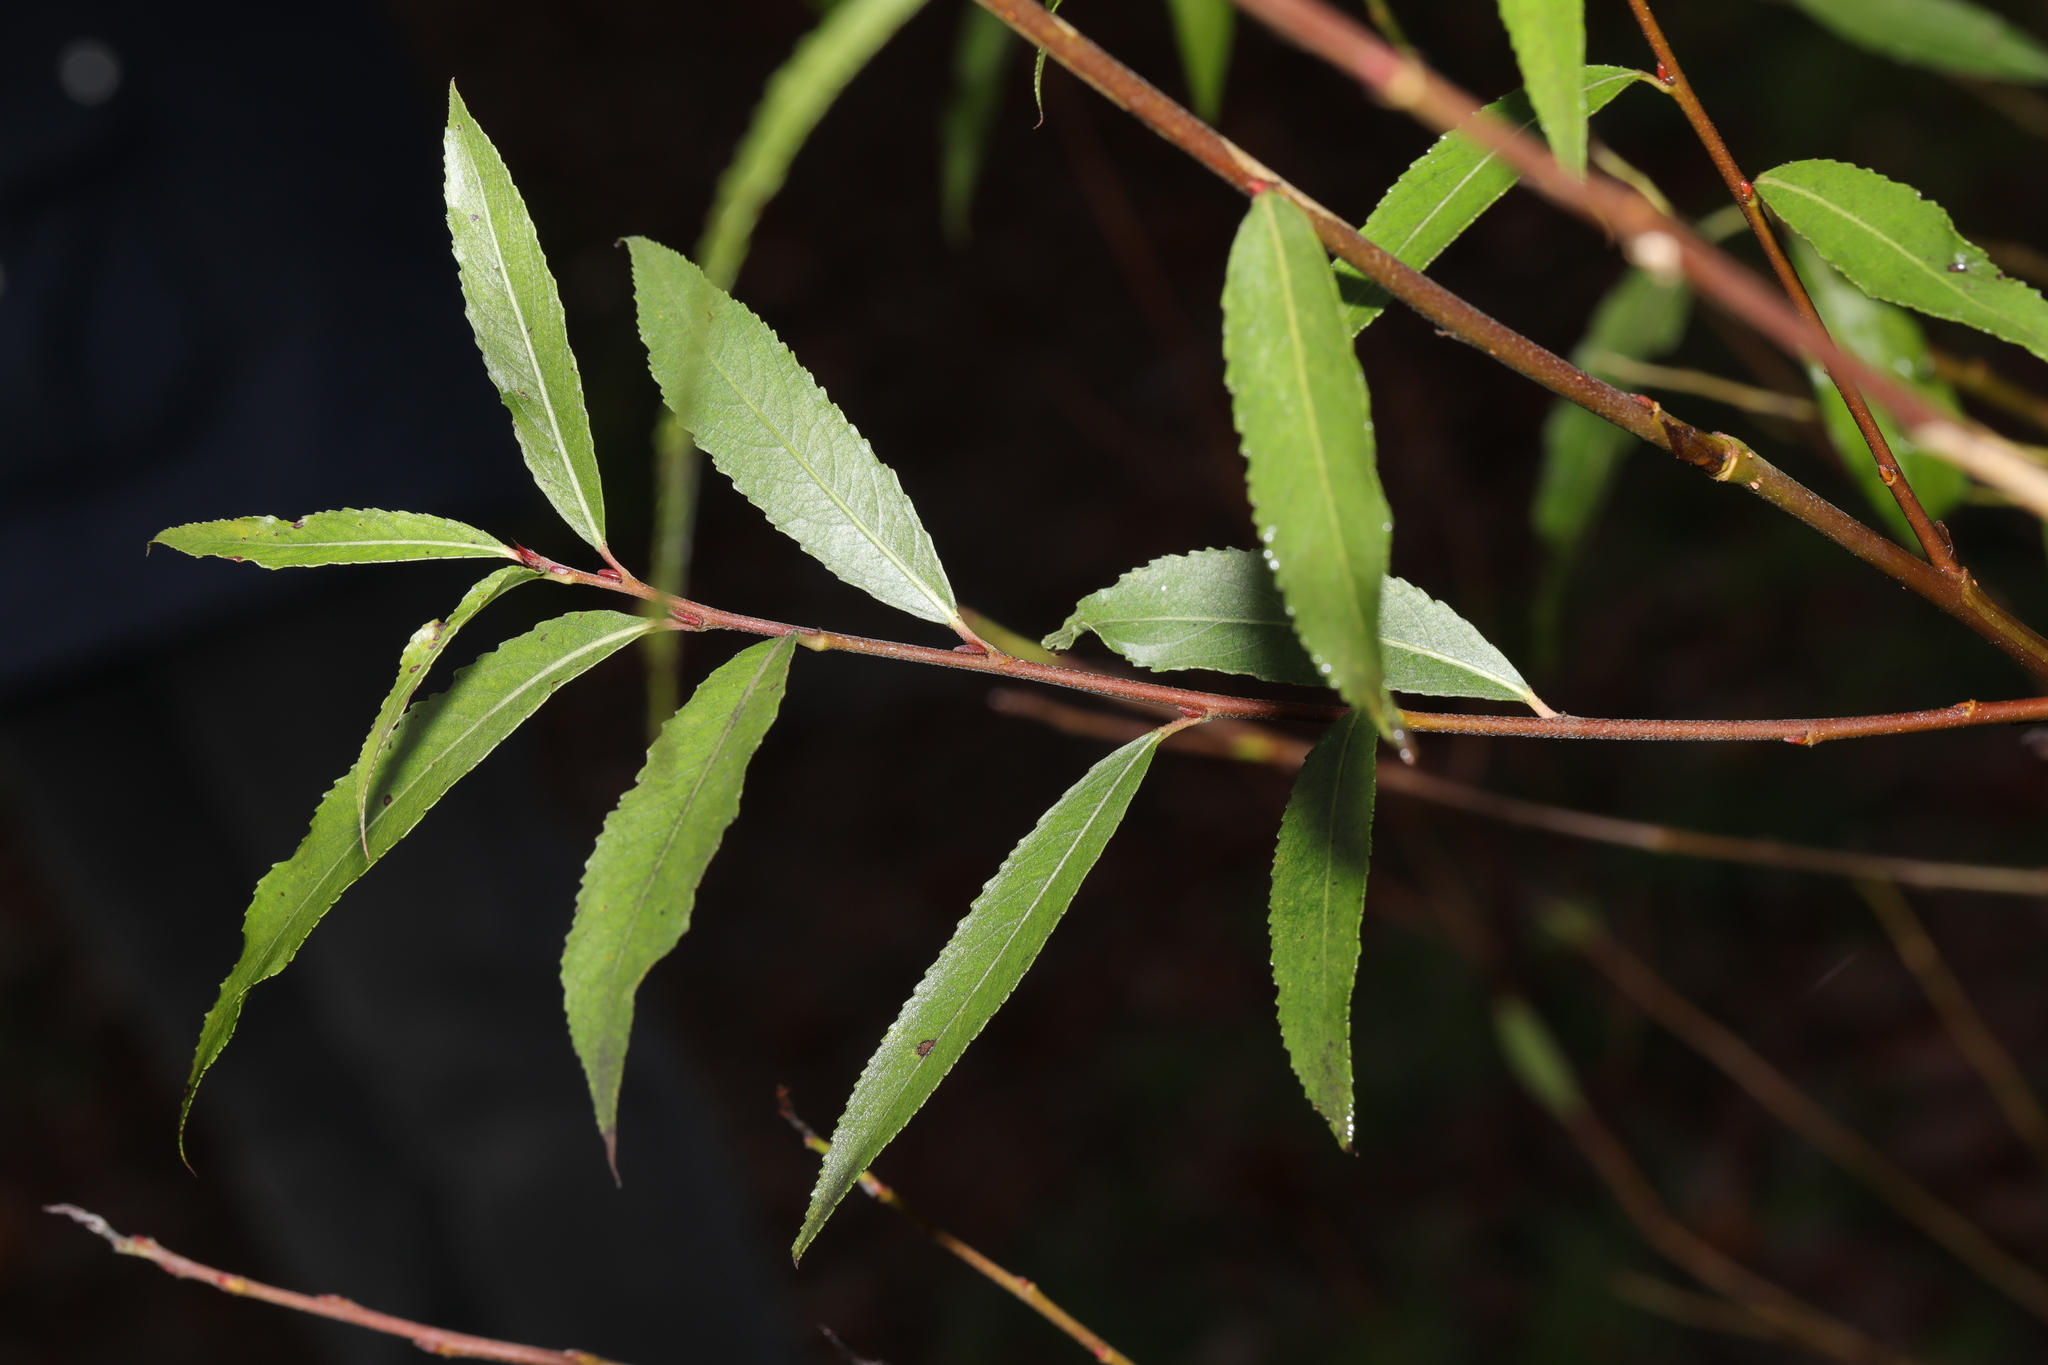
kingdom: Plantae
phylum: Tracheophyta
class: Magnoliopsida
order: Malpighiales
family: Salicaceae
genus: Salix
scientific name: Salix alba
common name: White willow
